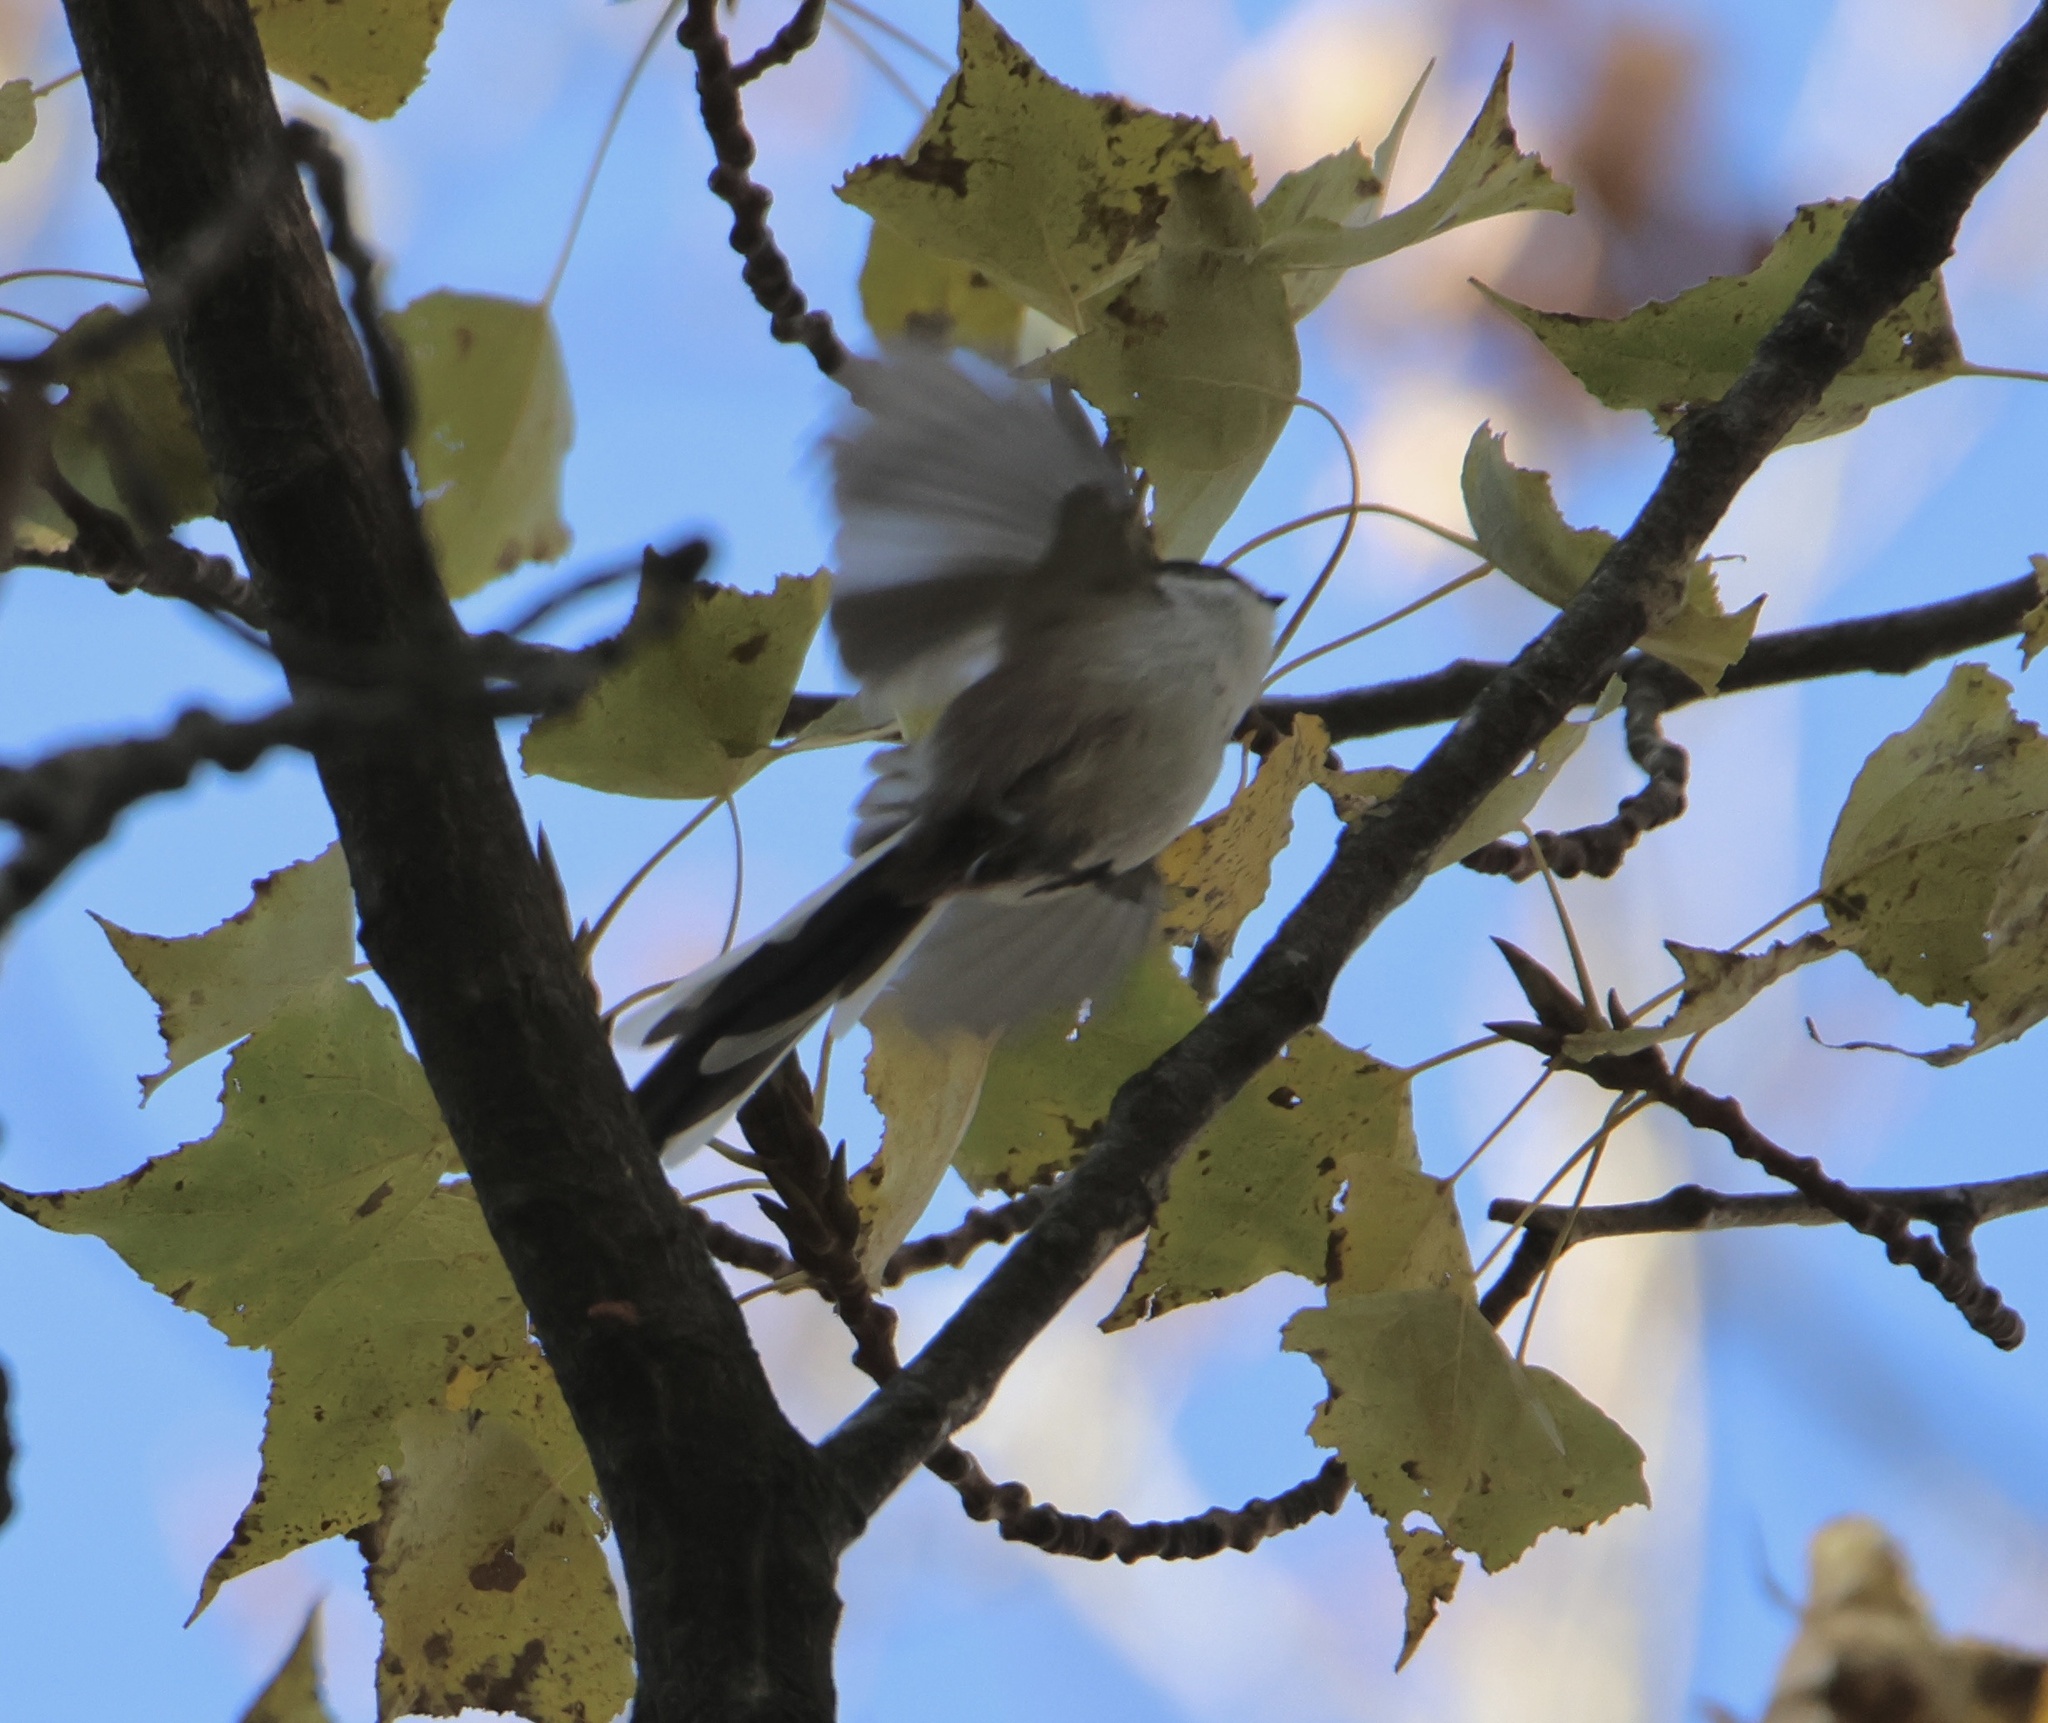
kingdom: Animalia
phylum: Chordata
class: Aves
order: Passeriformes
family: Aegithalidae
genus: Aegithalos
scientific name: Aegithalos caudatus
